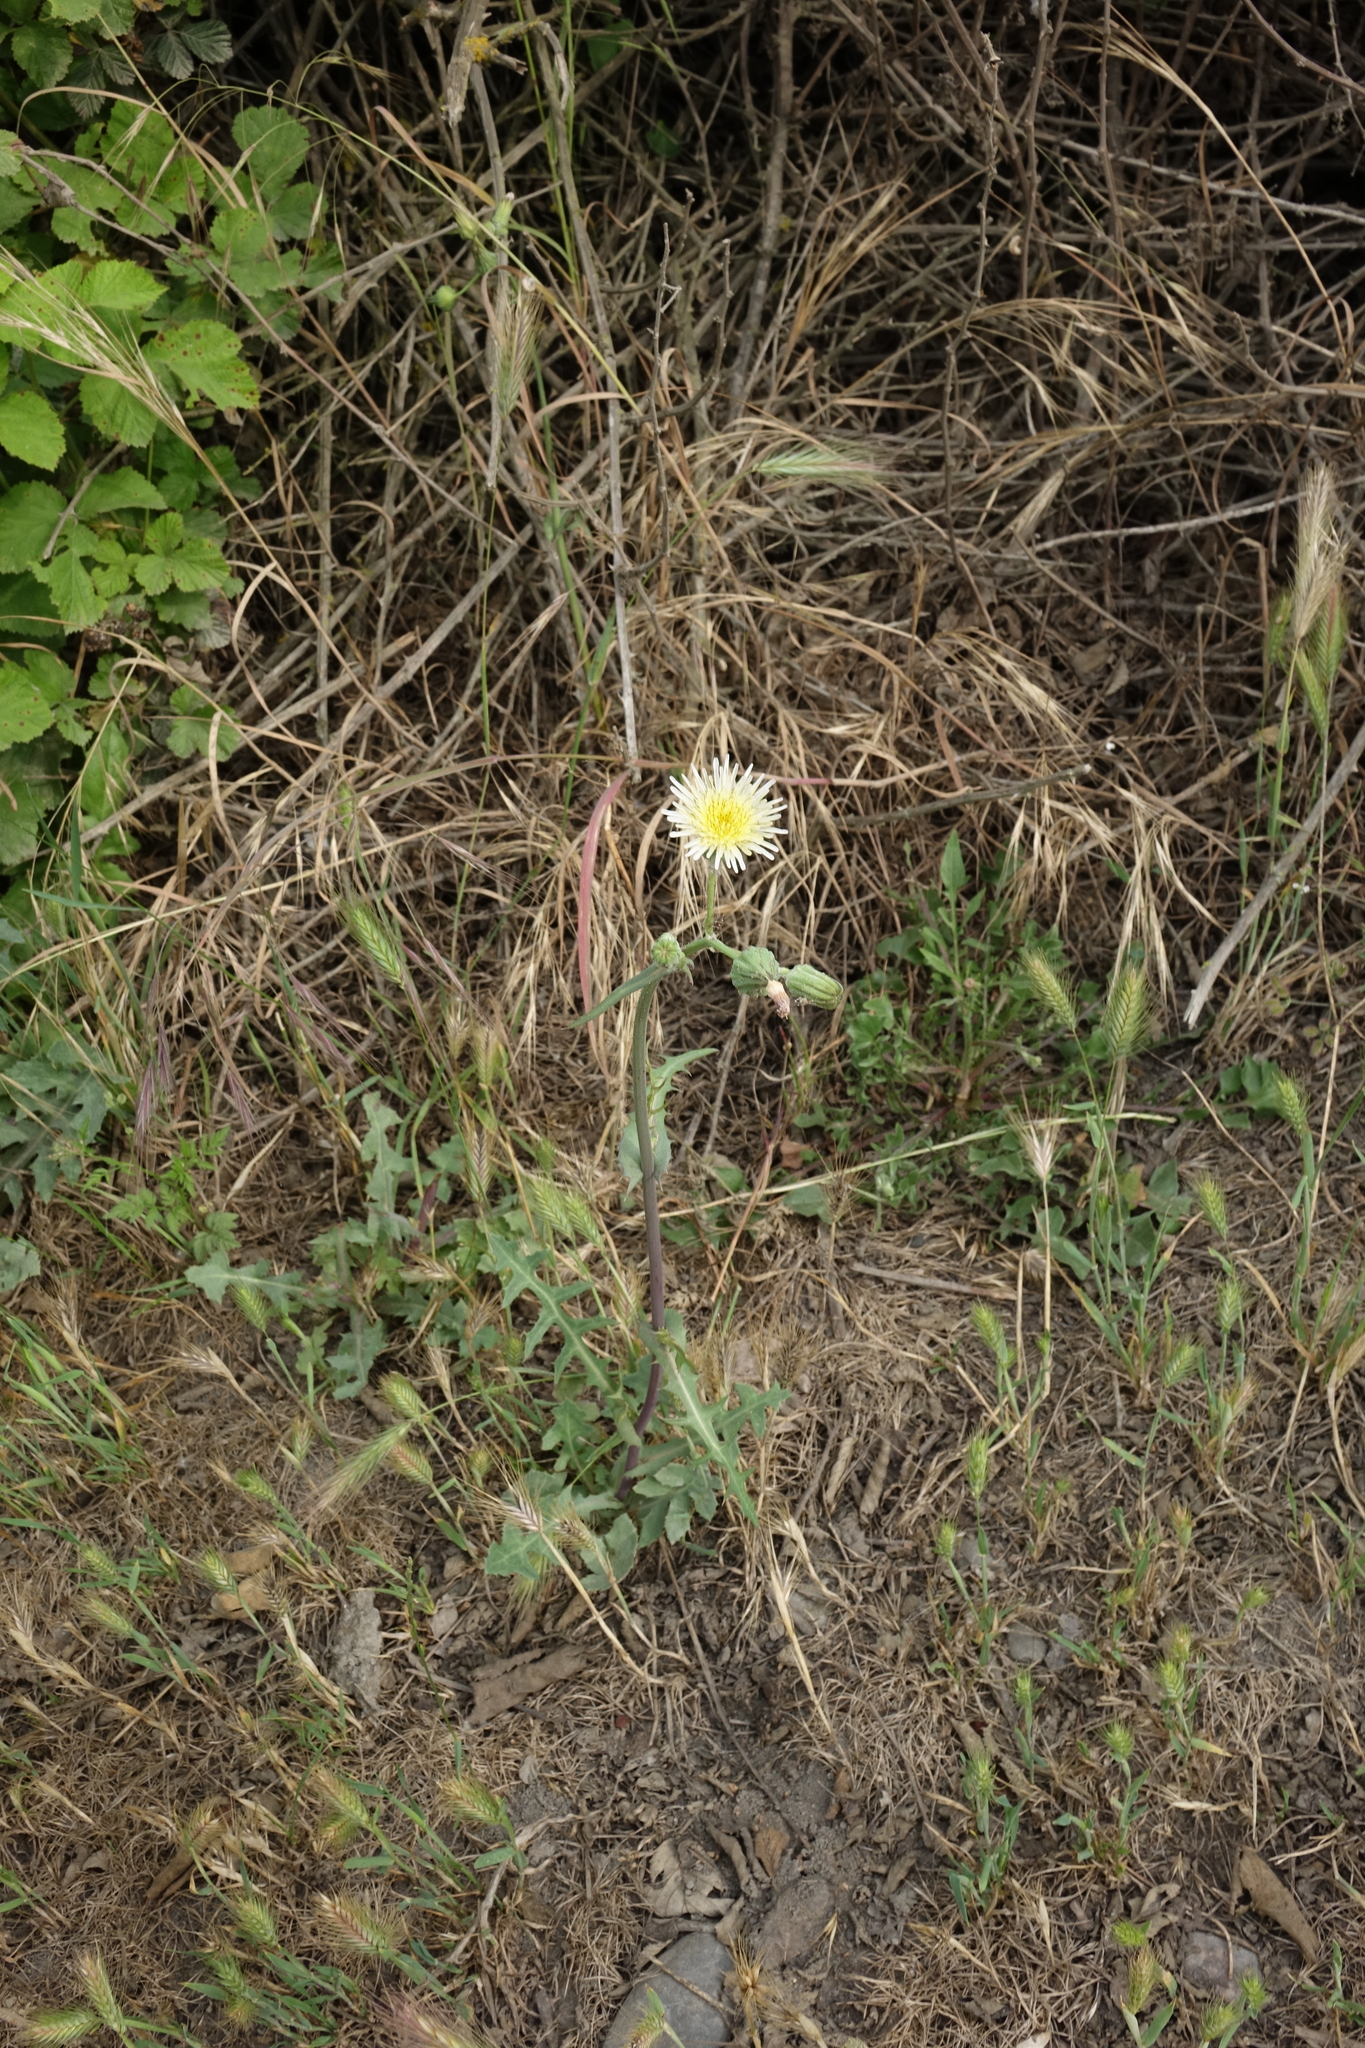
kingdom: Plantae
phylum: Tracheophyta
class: Magnoliopsida
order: Asterales
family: Asteraceae
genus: Sonchus
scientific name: Sonchus oleraceus
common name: Common sowthistle
